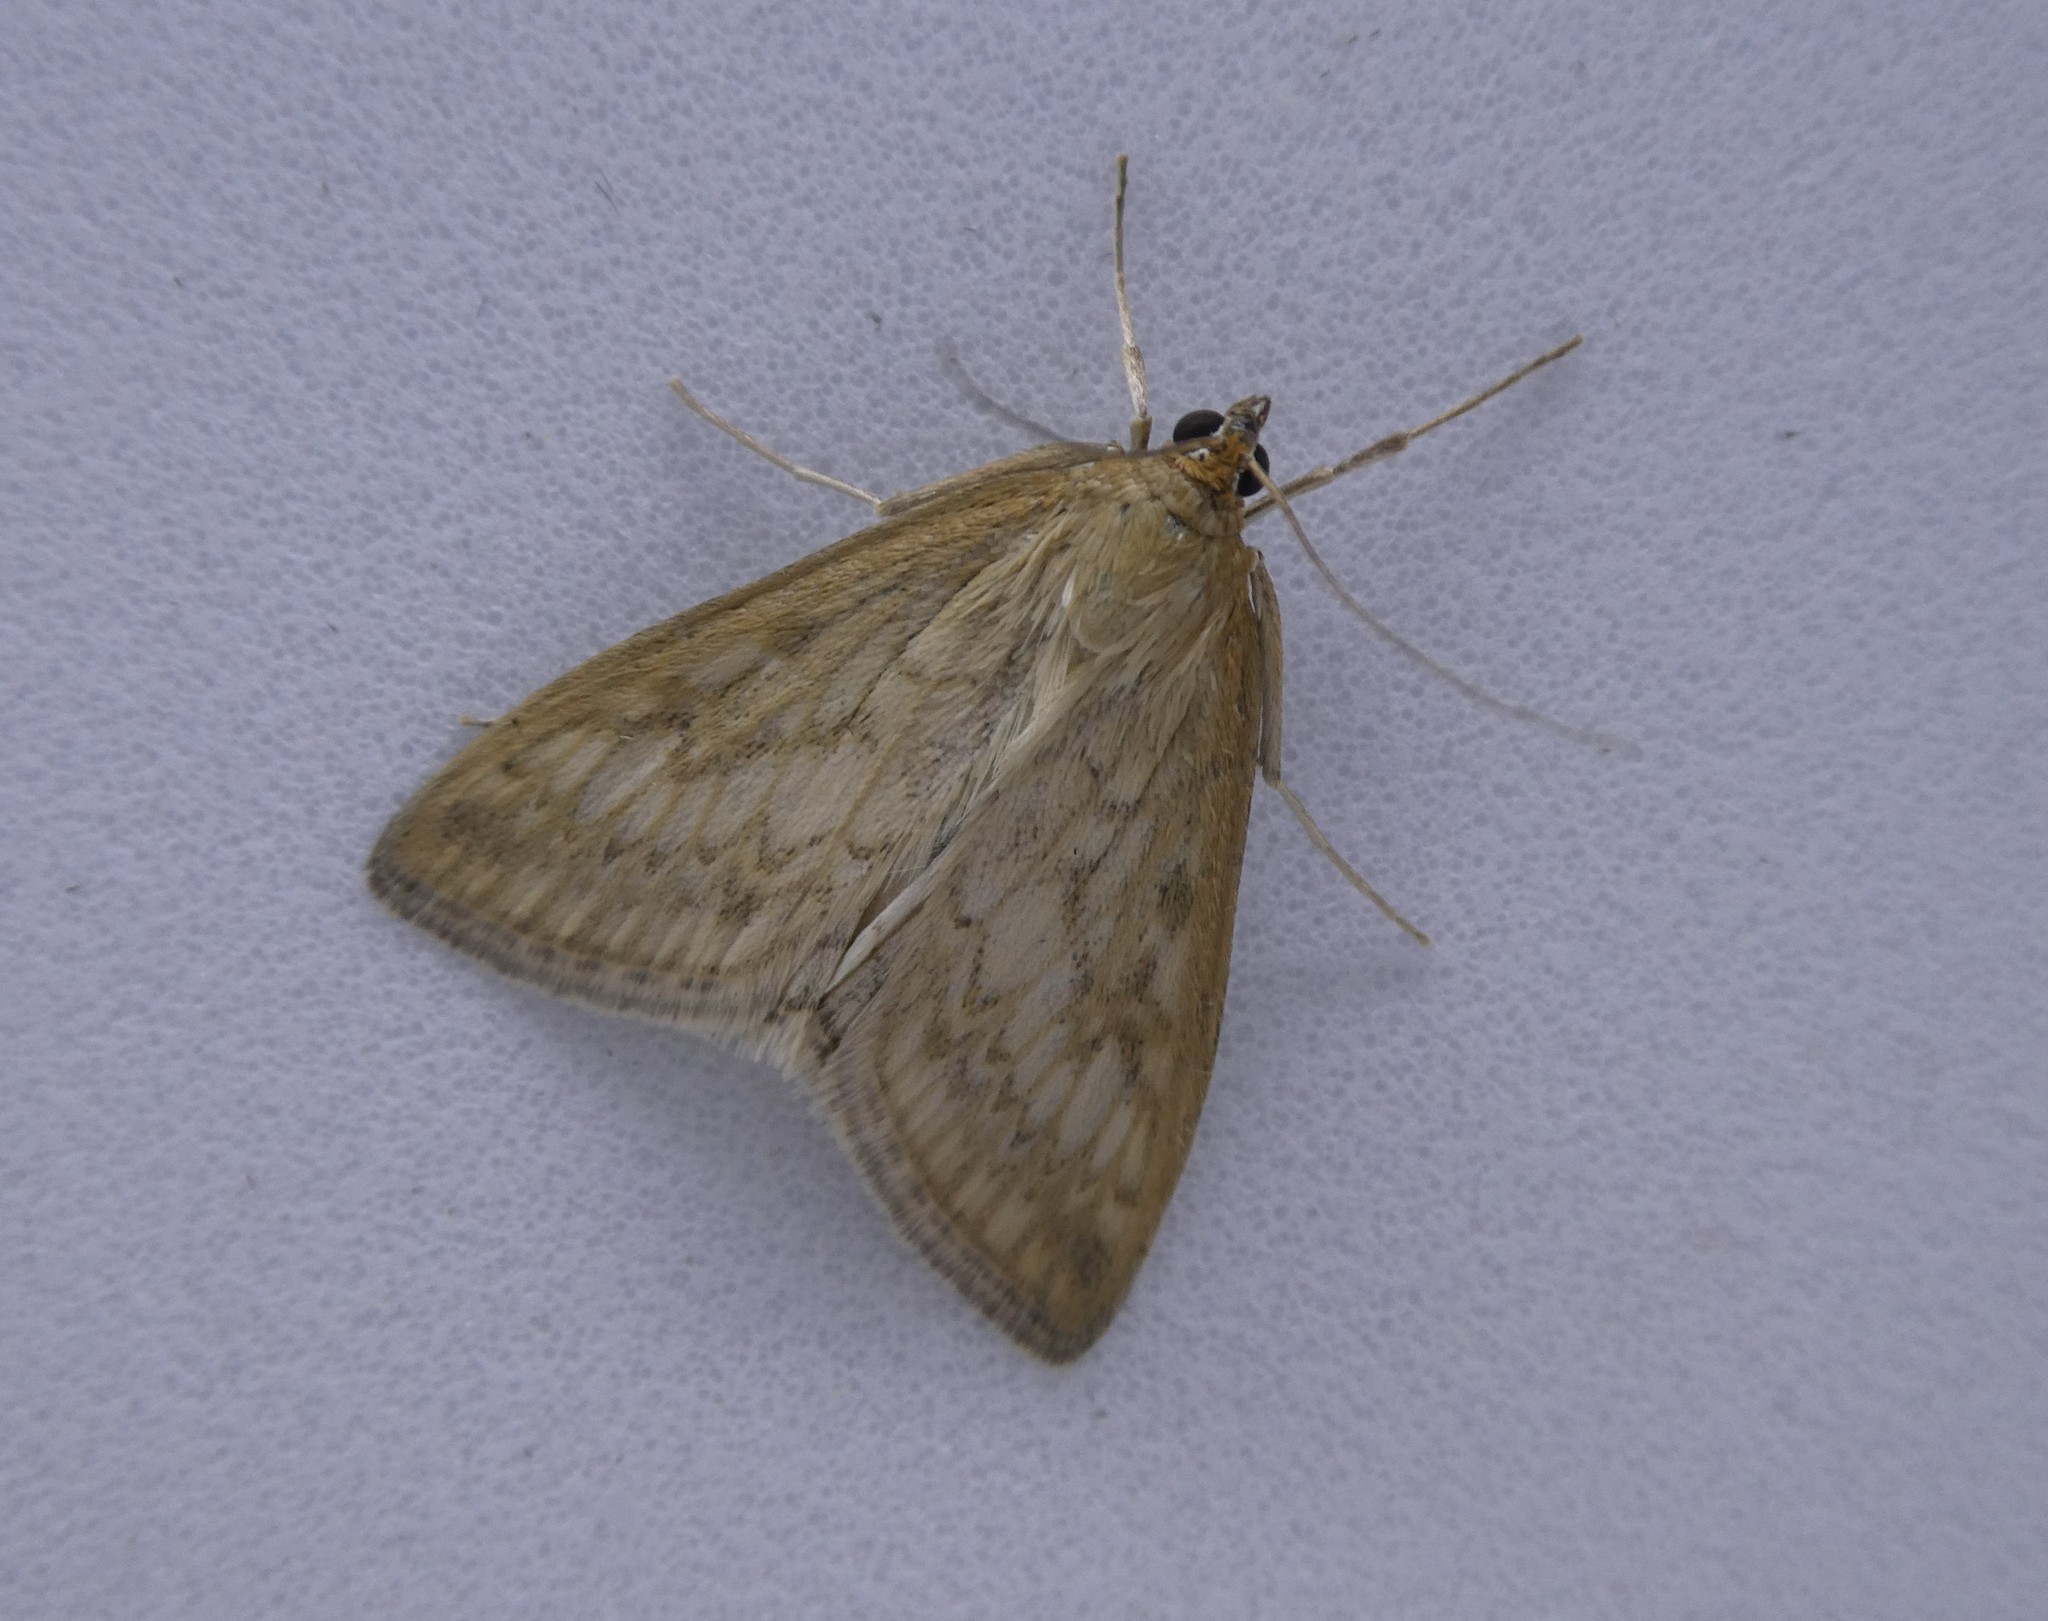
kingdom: Animalia
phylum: Arthropoda
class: Insecta
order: Lepidoptera
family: Crambidae
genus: Sitochroa
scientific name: Sitochroa chortalis
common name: Dimorphic sitochroa moth
